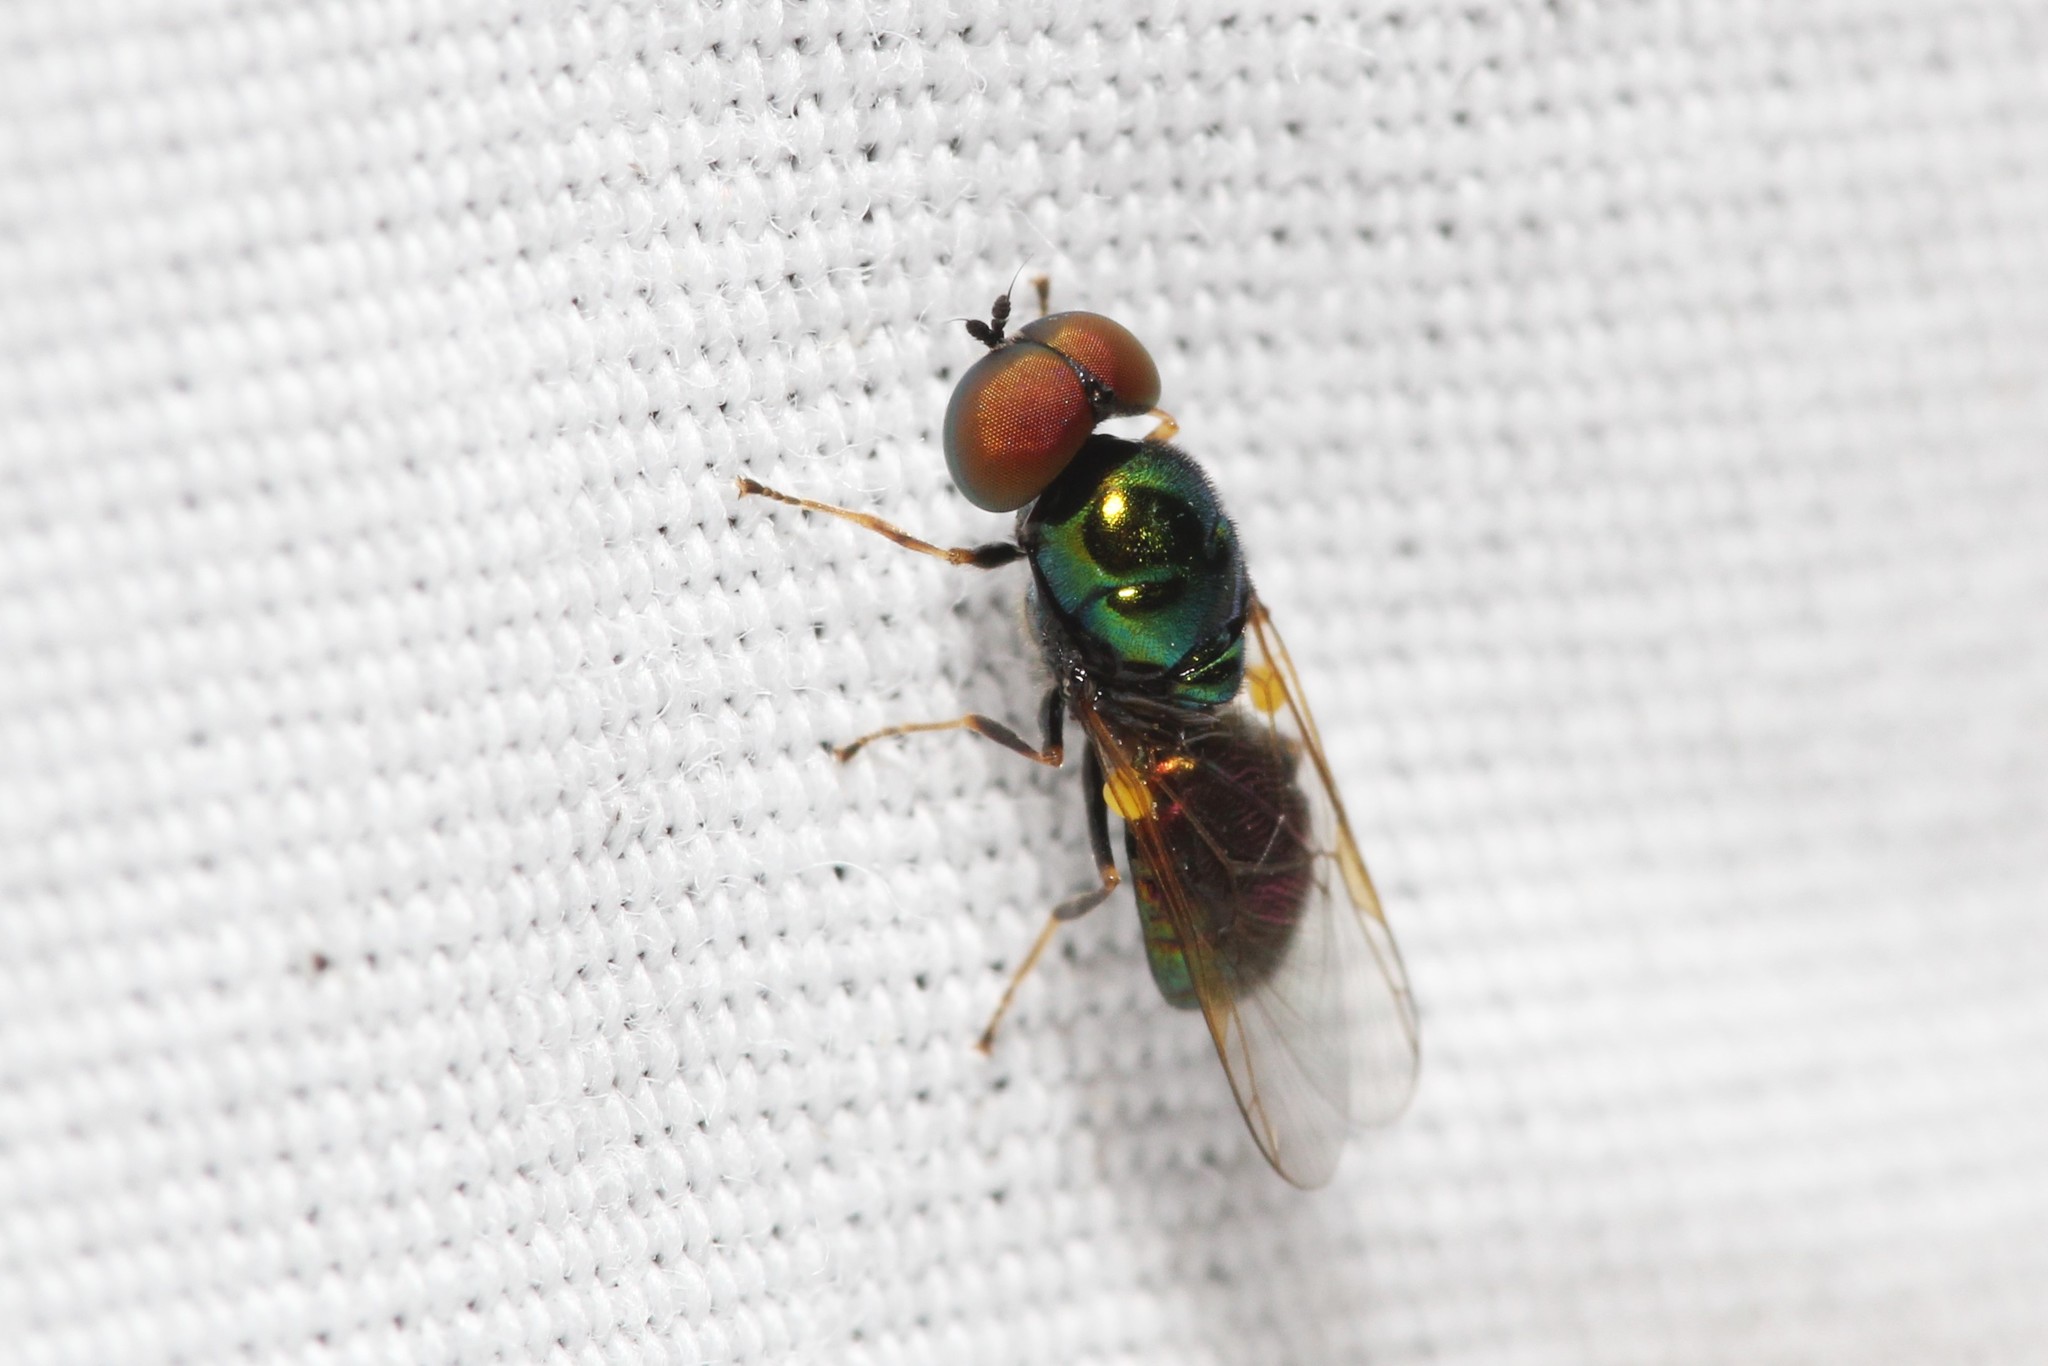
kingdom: Animalia
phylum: Arthropoda
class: Insecta
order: Diptera
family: Stratiomyidae
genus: Microchrysa
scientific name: Microchrysa polita
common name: Black-horned gem
